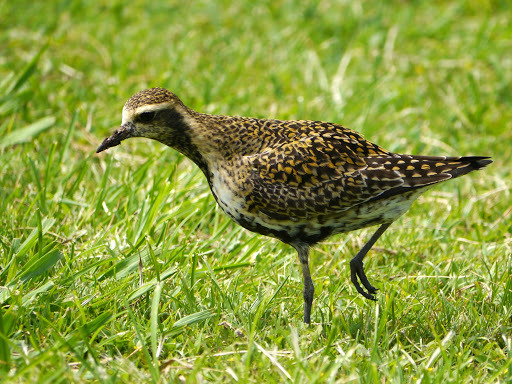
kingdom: Animalia
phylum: Chordata
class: Aves
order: Charadriiformes
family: Charadriidae
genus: Pluvialis
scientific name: Pluvialis fulva
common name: Pacific golden plover
